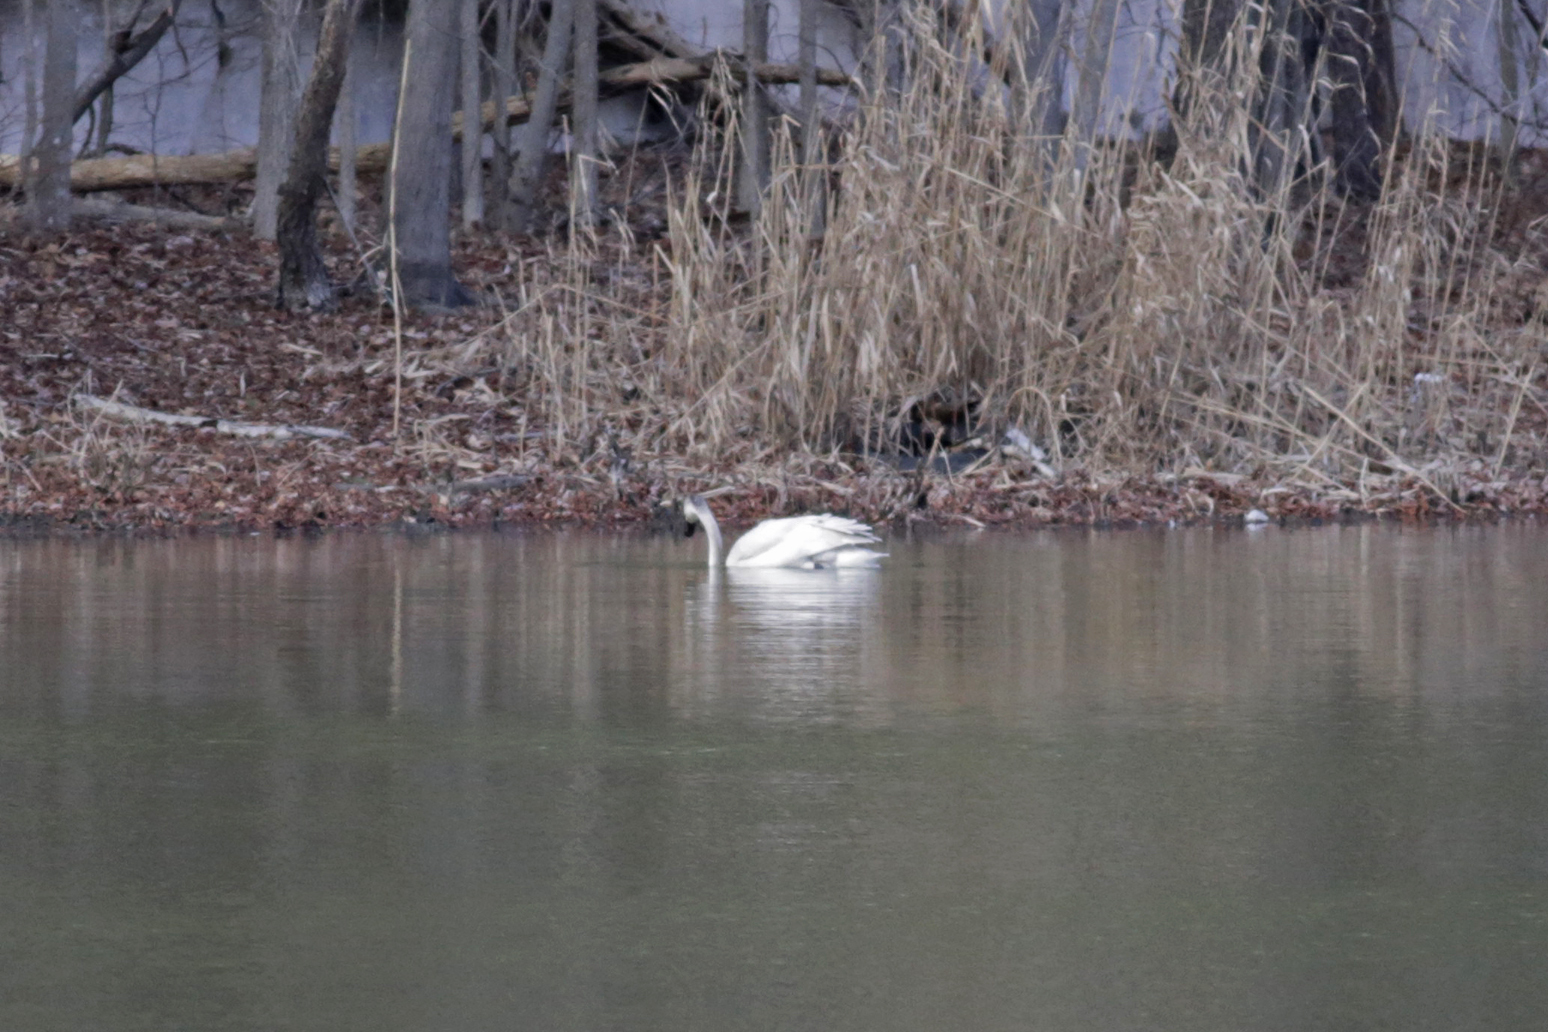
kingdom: Animalia
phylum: Chordata
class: Aves
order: Anseriformes
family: Anatidae
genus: Cygnus
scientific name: Cygnus columbianus
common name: Tundra swan
